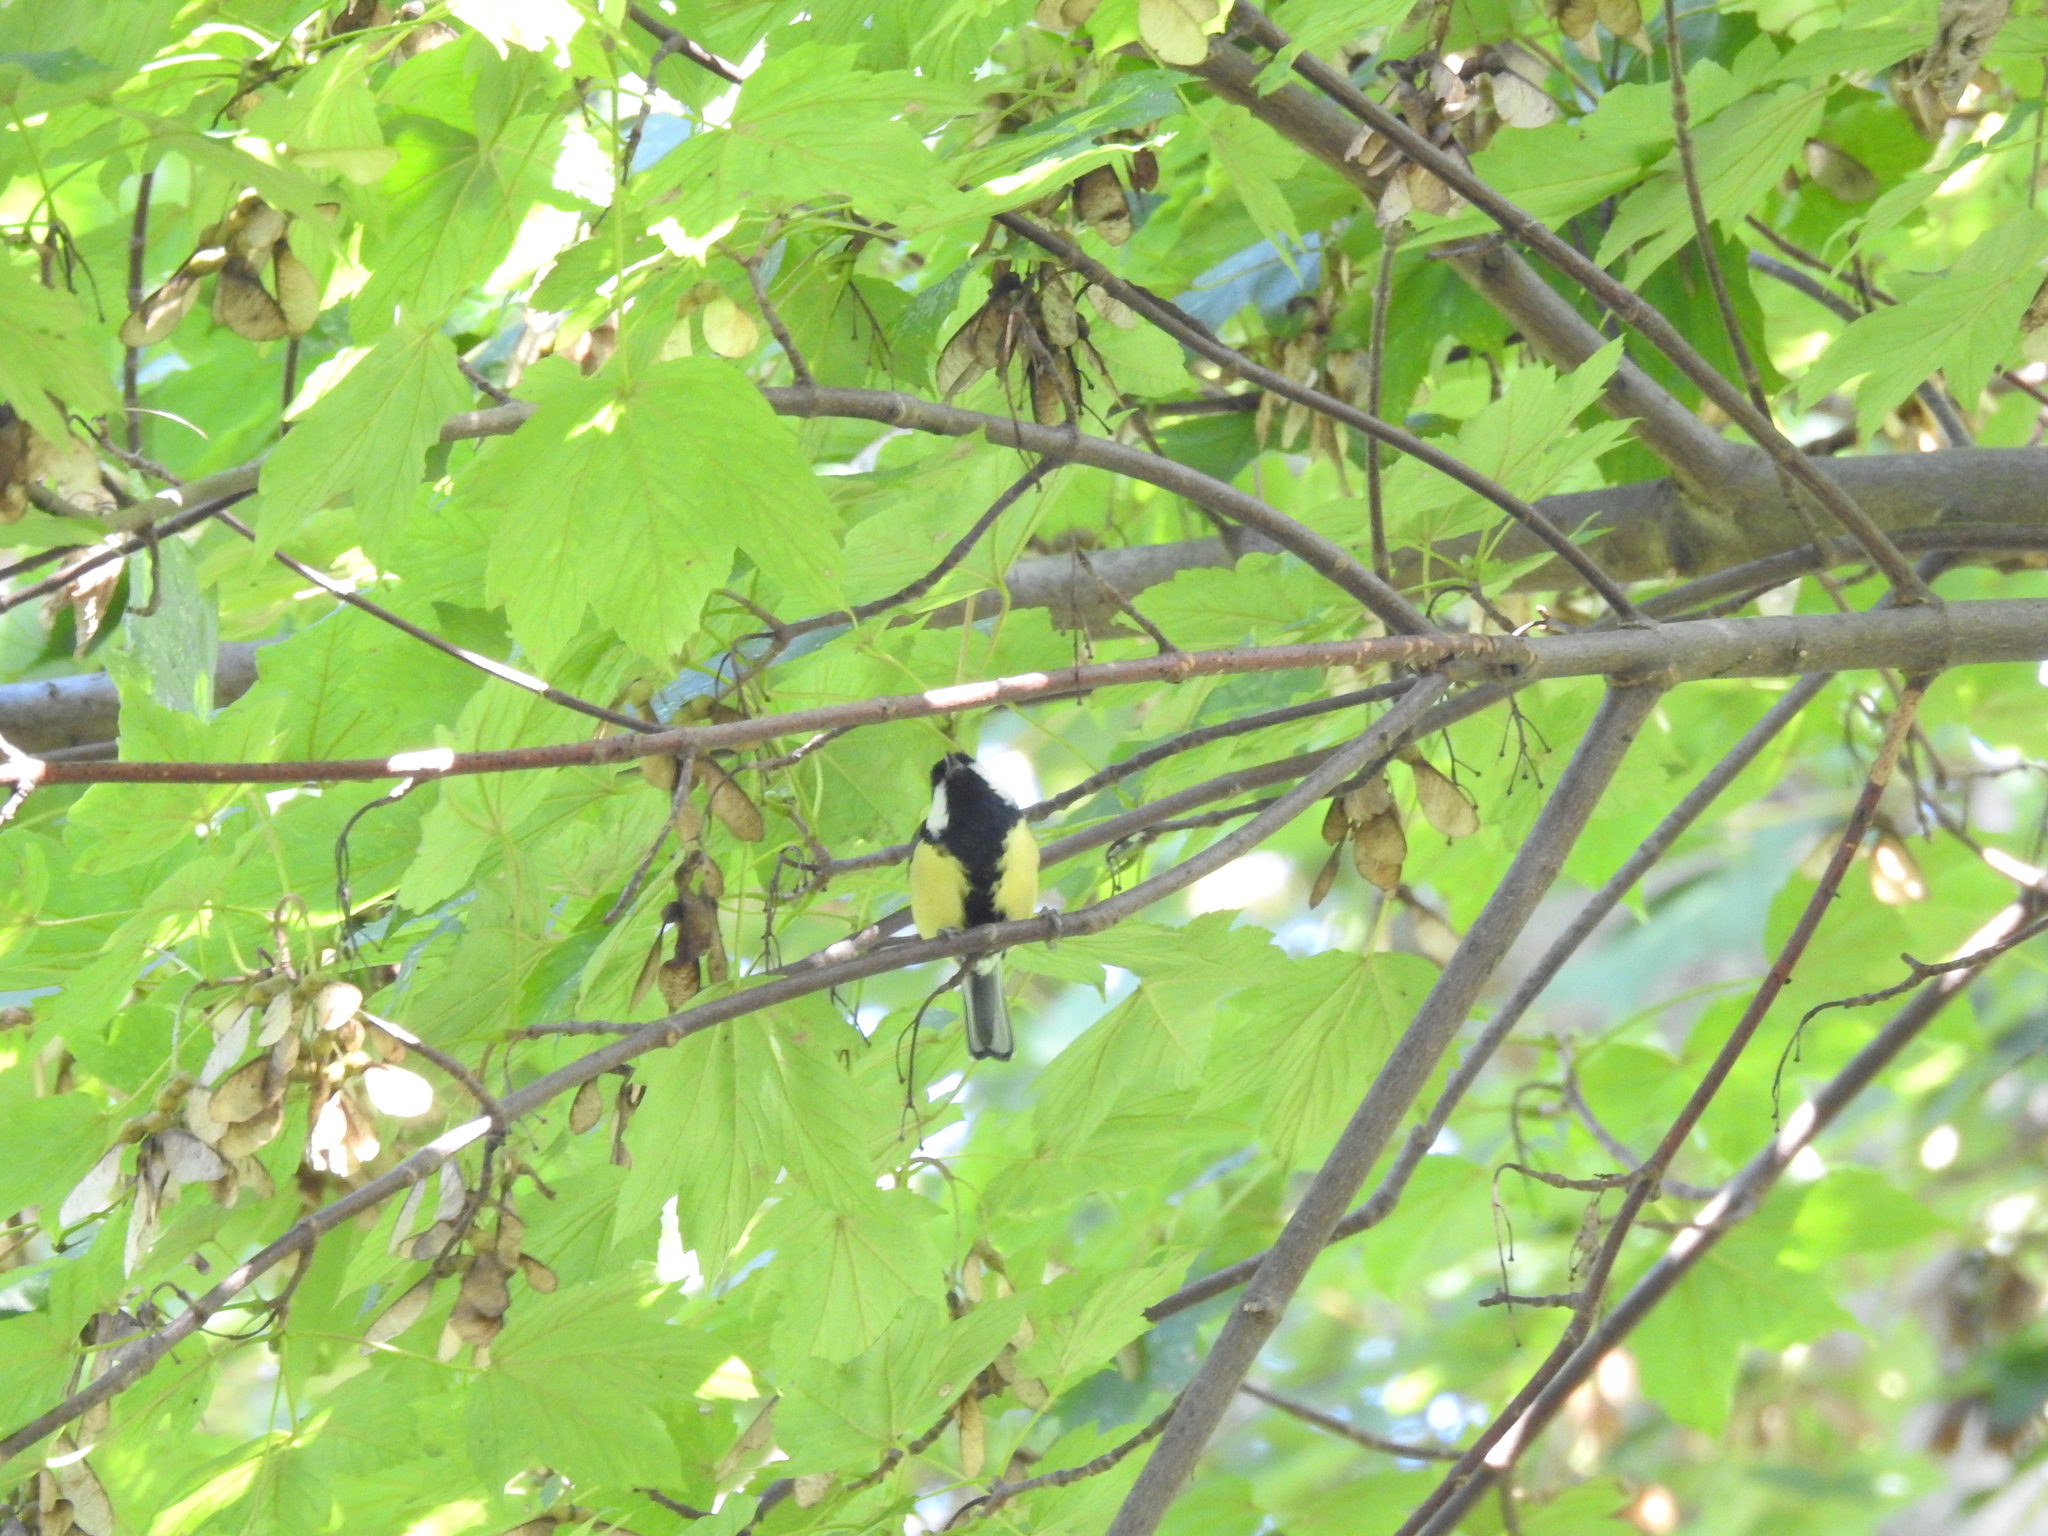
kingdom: Animalia
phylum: Chordata
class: Aves
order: Passeriformes
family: Paridae
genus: Parus
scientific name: Parus major
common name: Great tit
